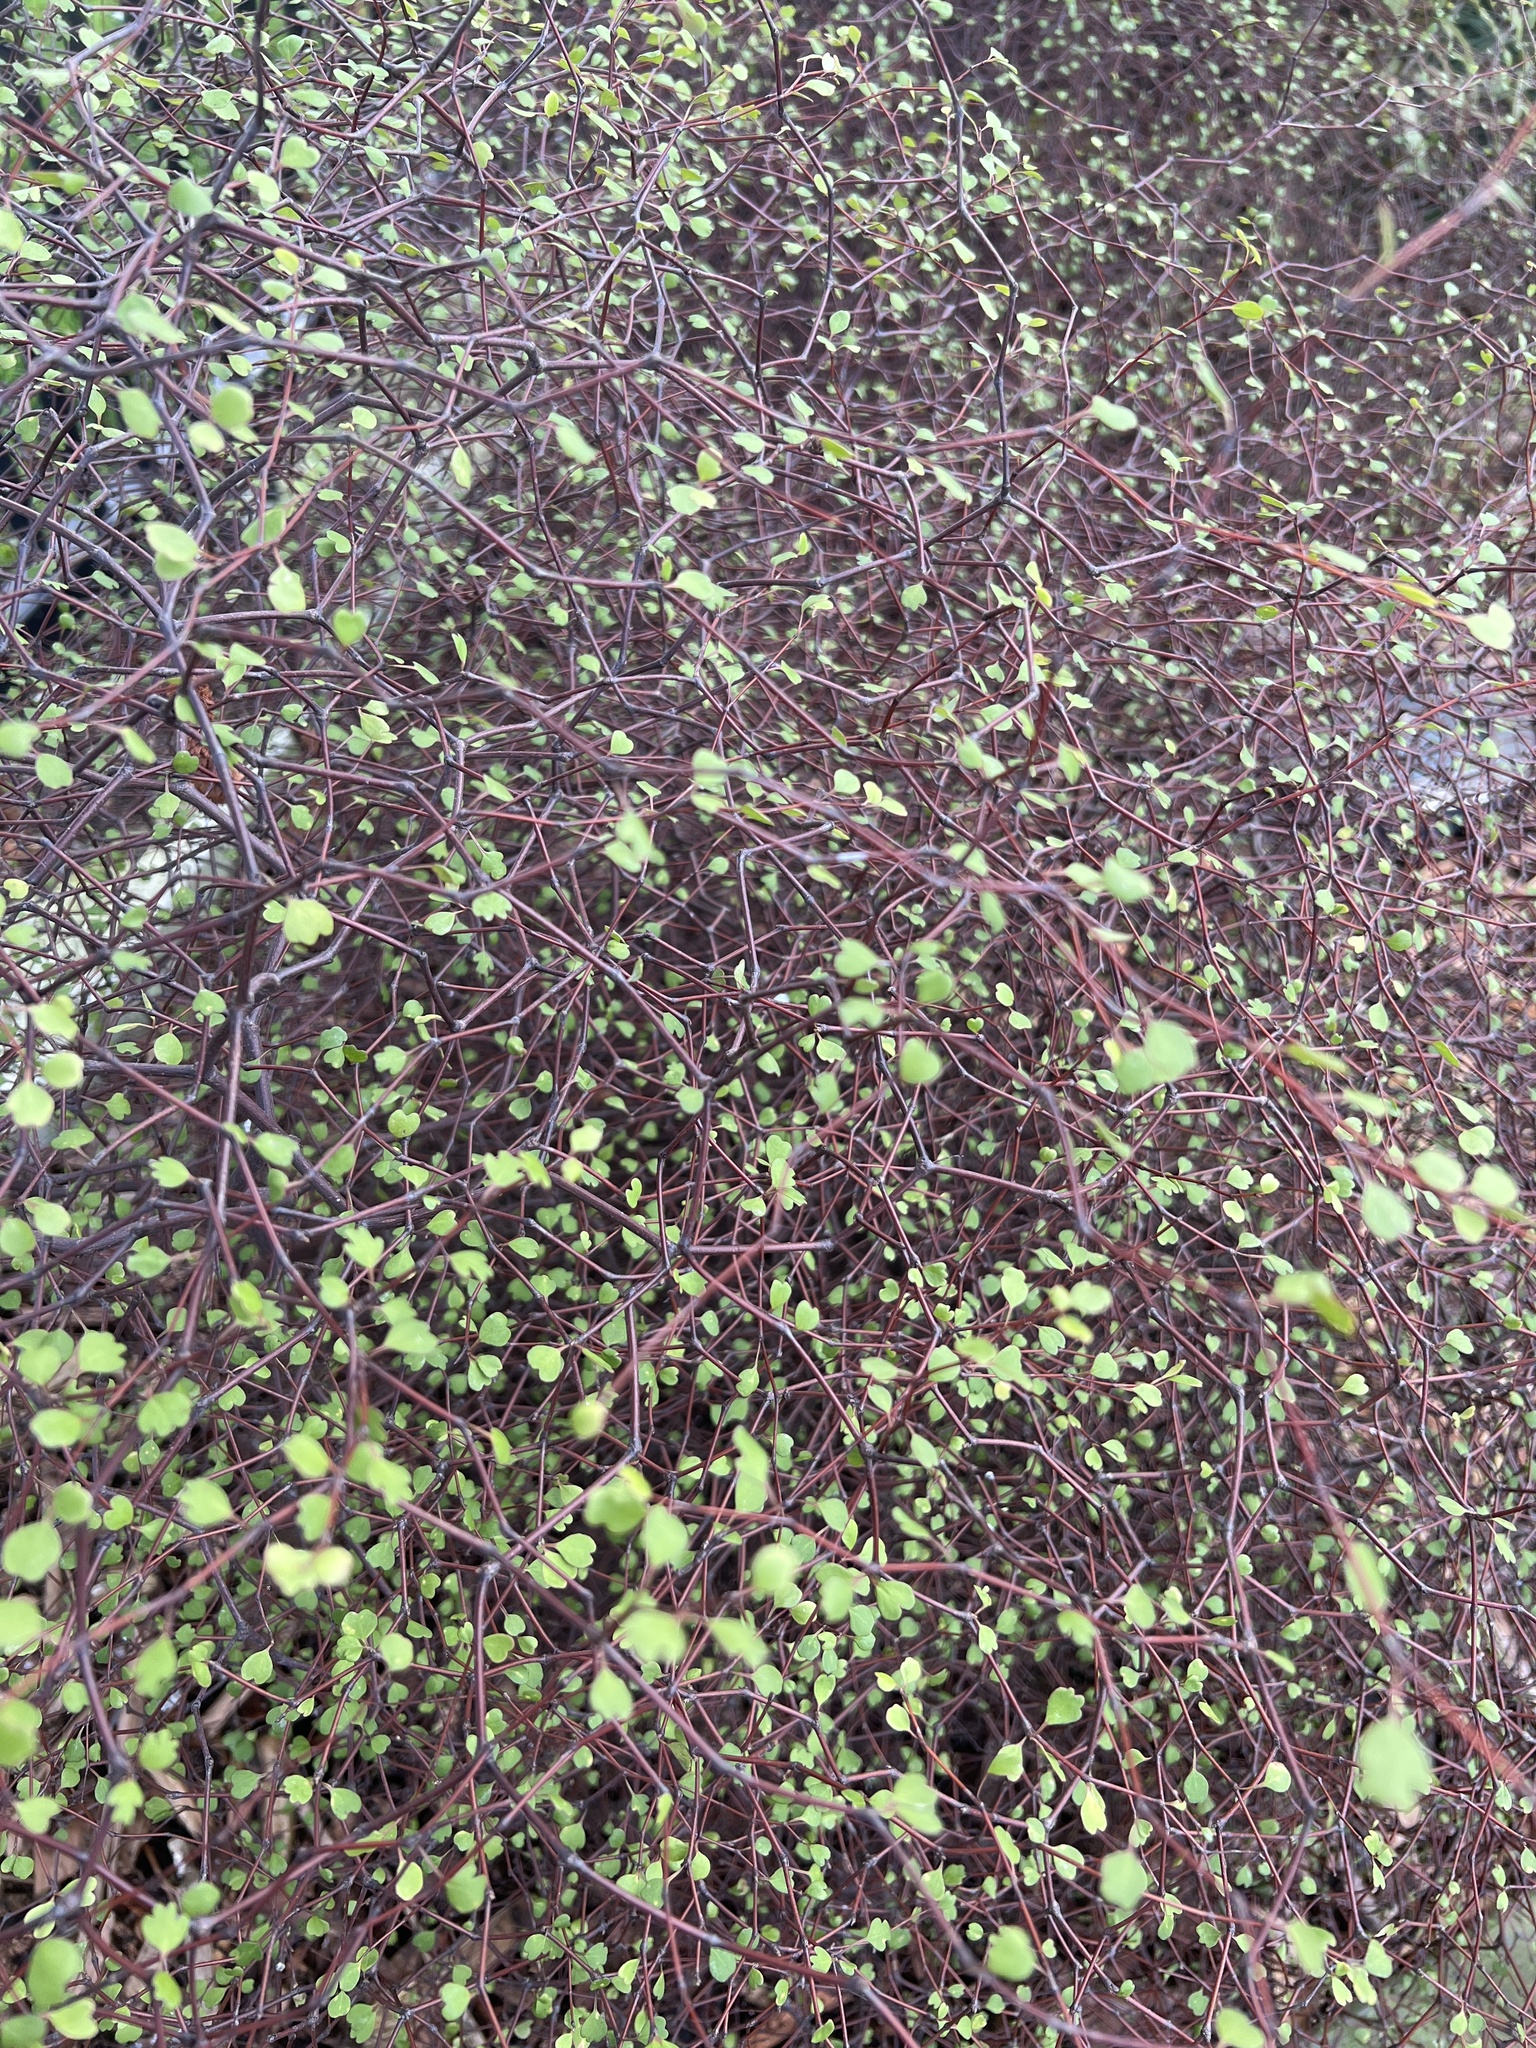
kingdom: Plantae
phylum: Tracheophyta
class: Magnoliopsida
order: Caryophyllales
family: Polygonaceae
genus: Muehlenbeckia
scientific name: Muehlenbeckia astonii
